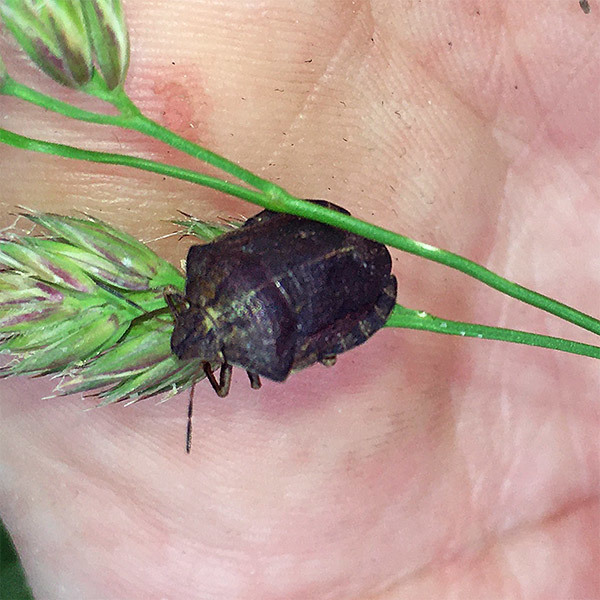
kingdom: Animalia
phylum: Arthropoda
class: Insecta
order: Hemiptera
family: Scutelleridae
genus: Eurygaster
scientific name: Eurygaster testudinaria
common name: Tortoise bug
